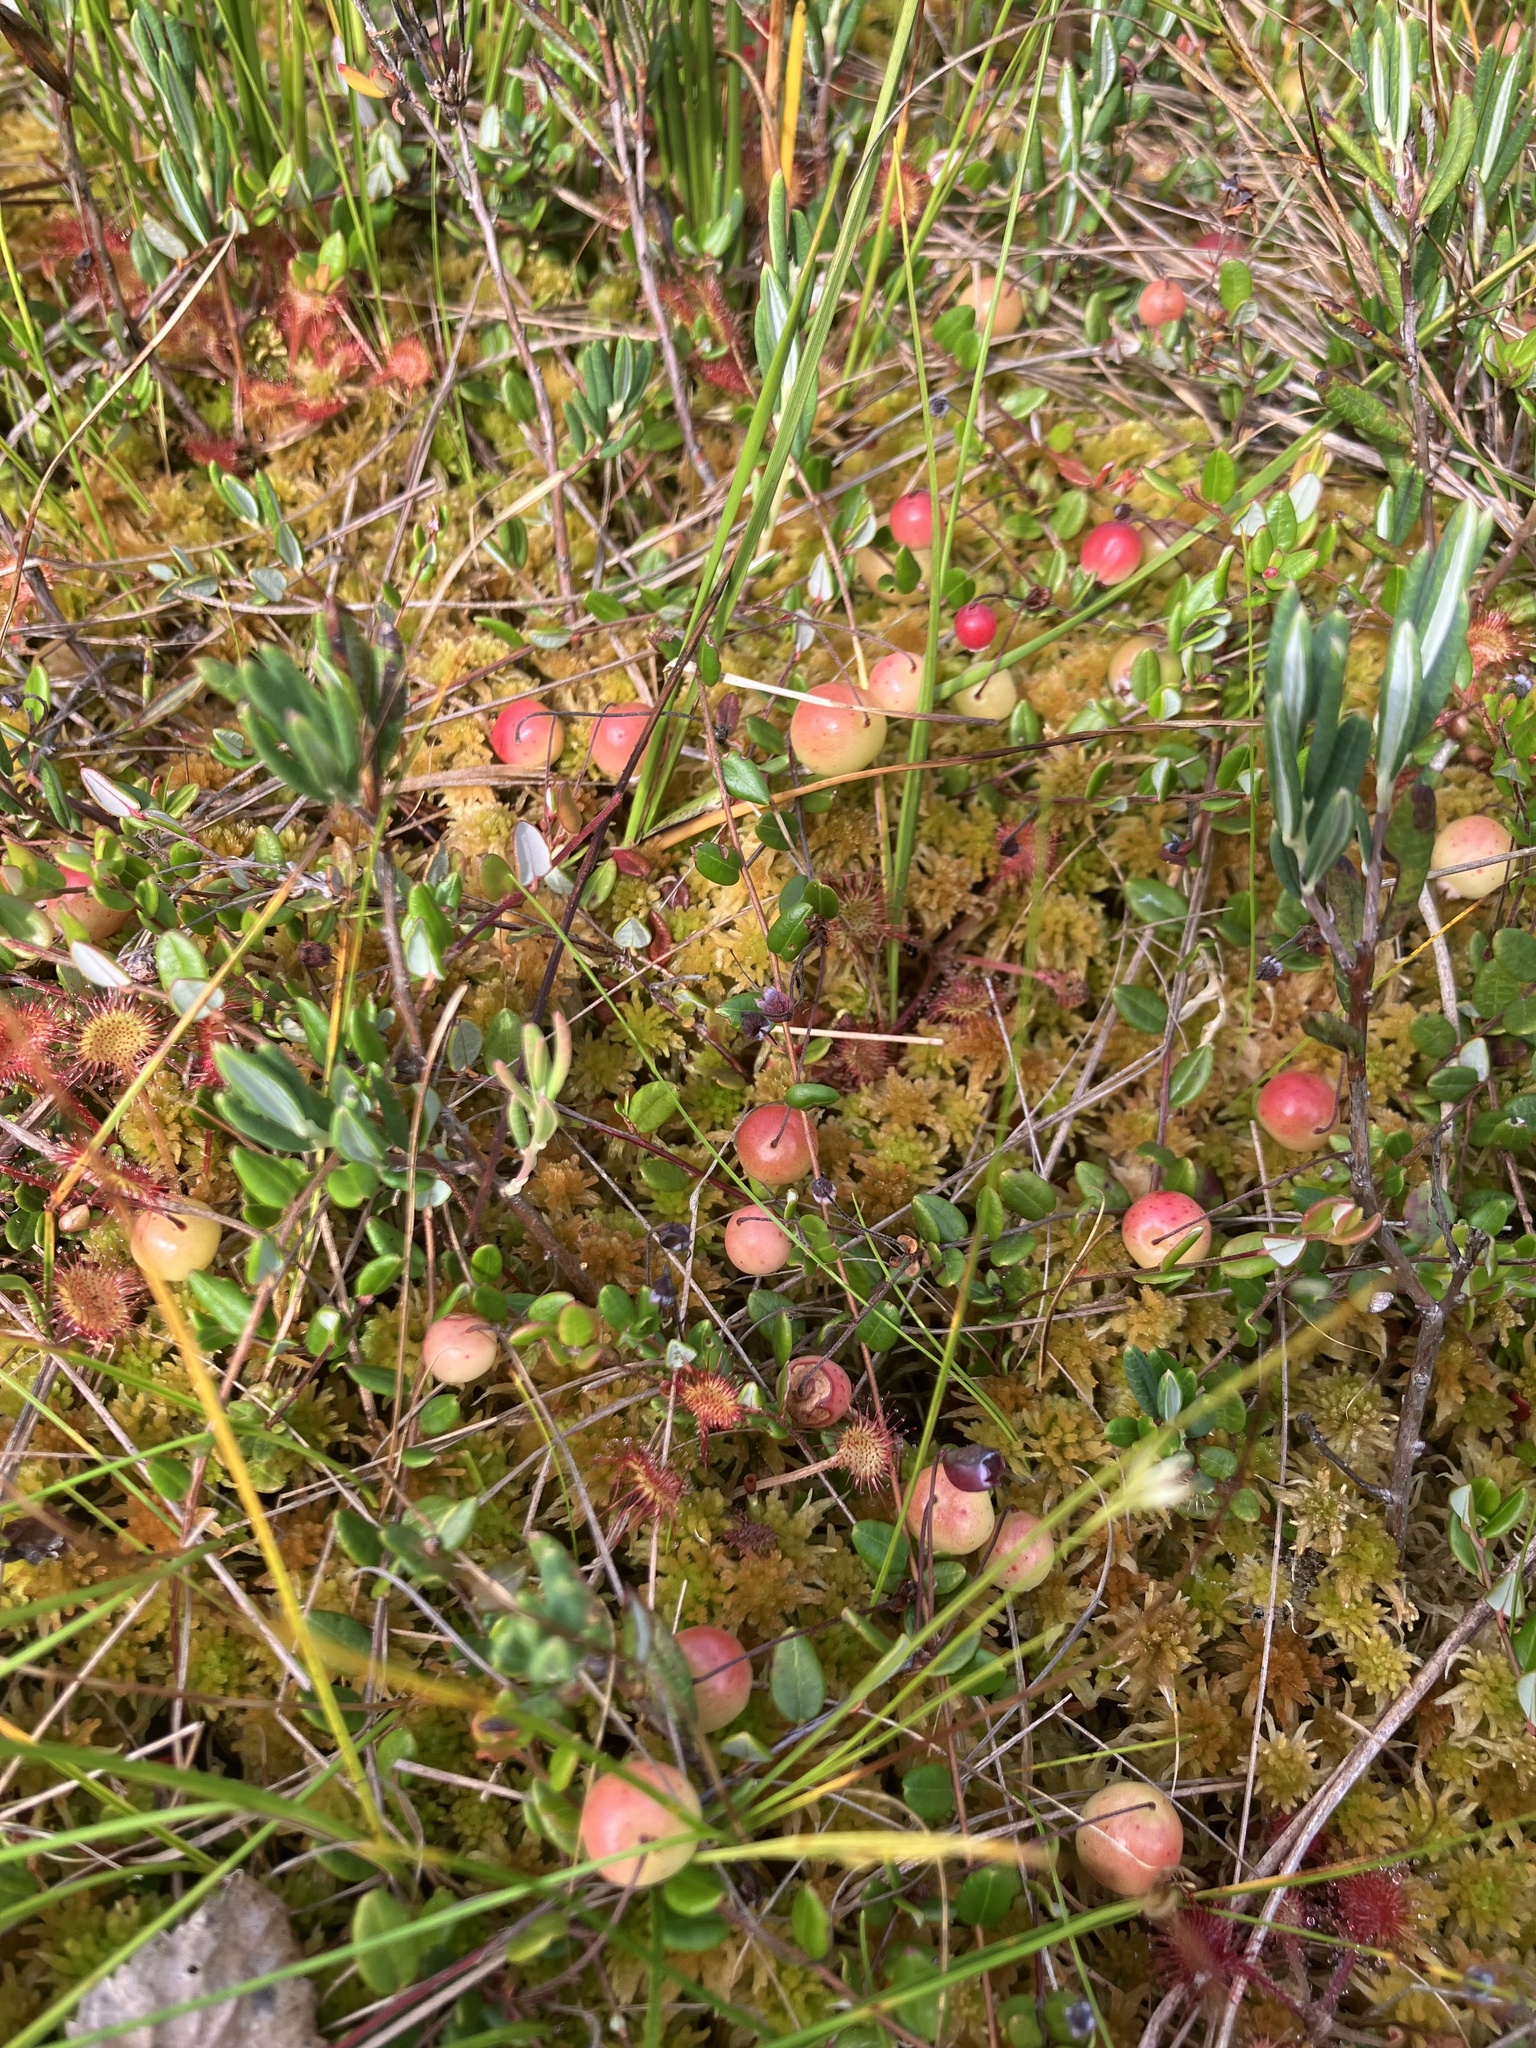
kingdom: Plantae
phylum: Tracheophyta
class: Magnoliopsida
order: Ericales
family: Ericaceae
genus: Vaccinium
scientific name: Vaccinium oxycoccos
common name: Cranberry
